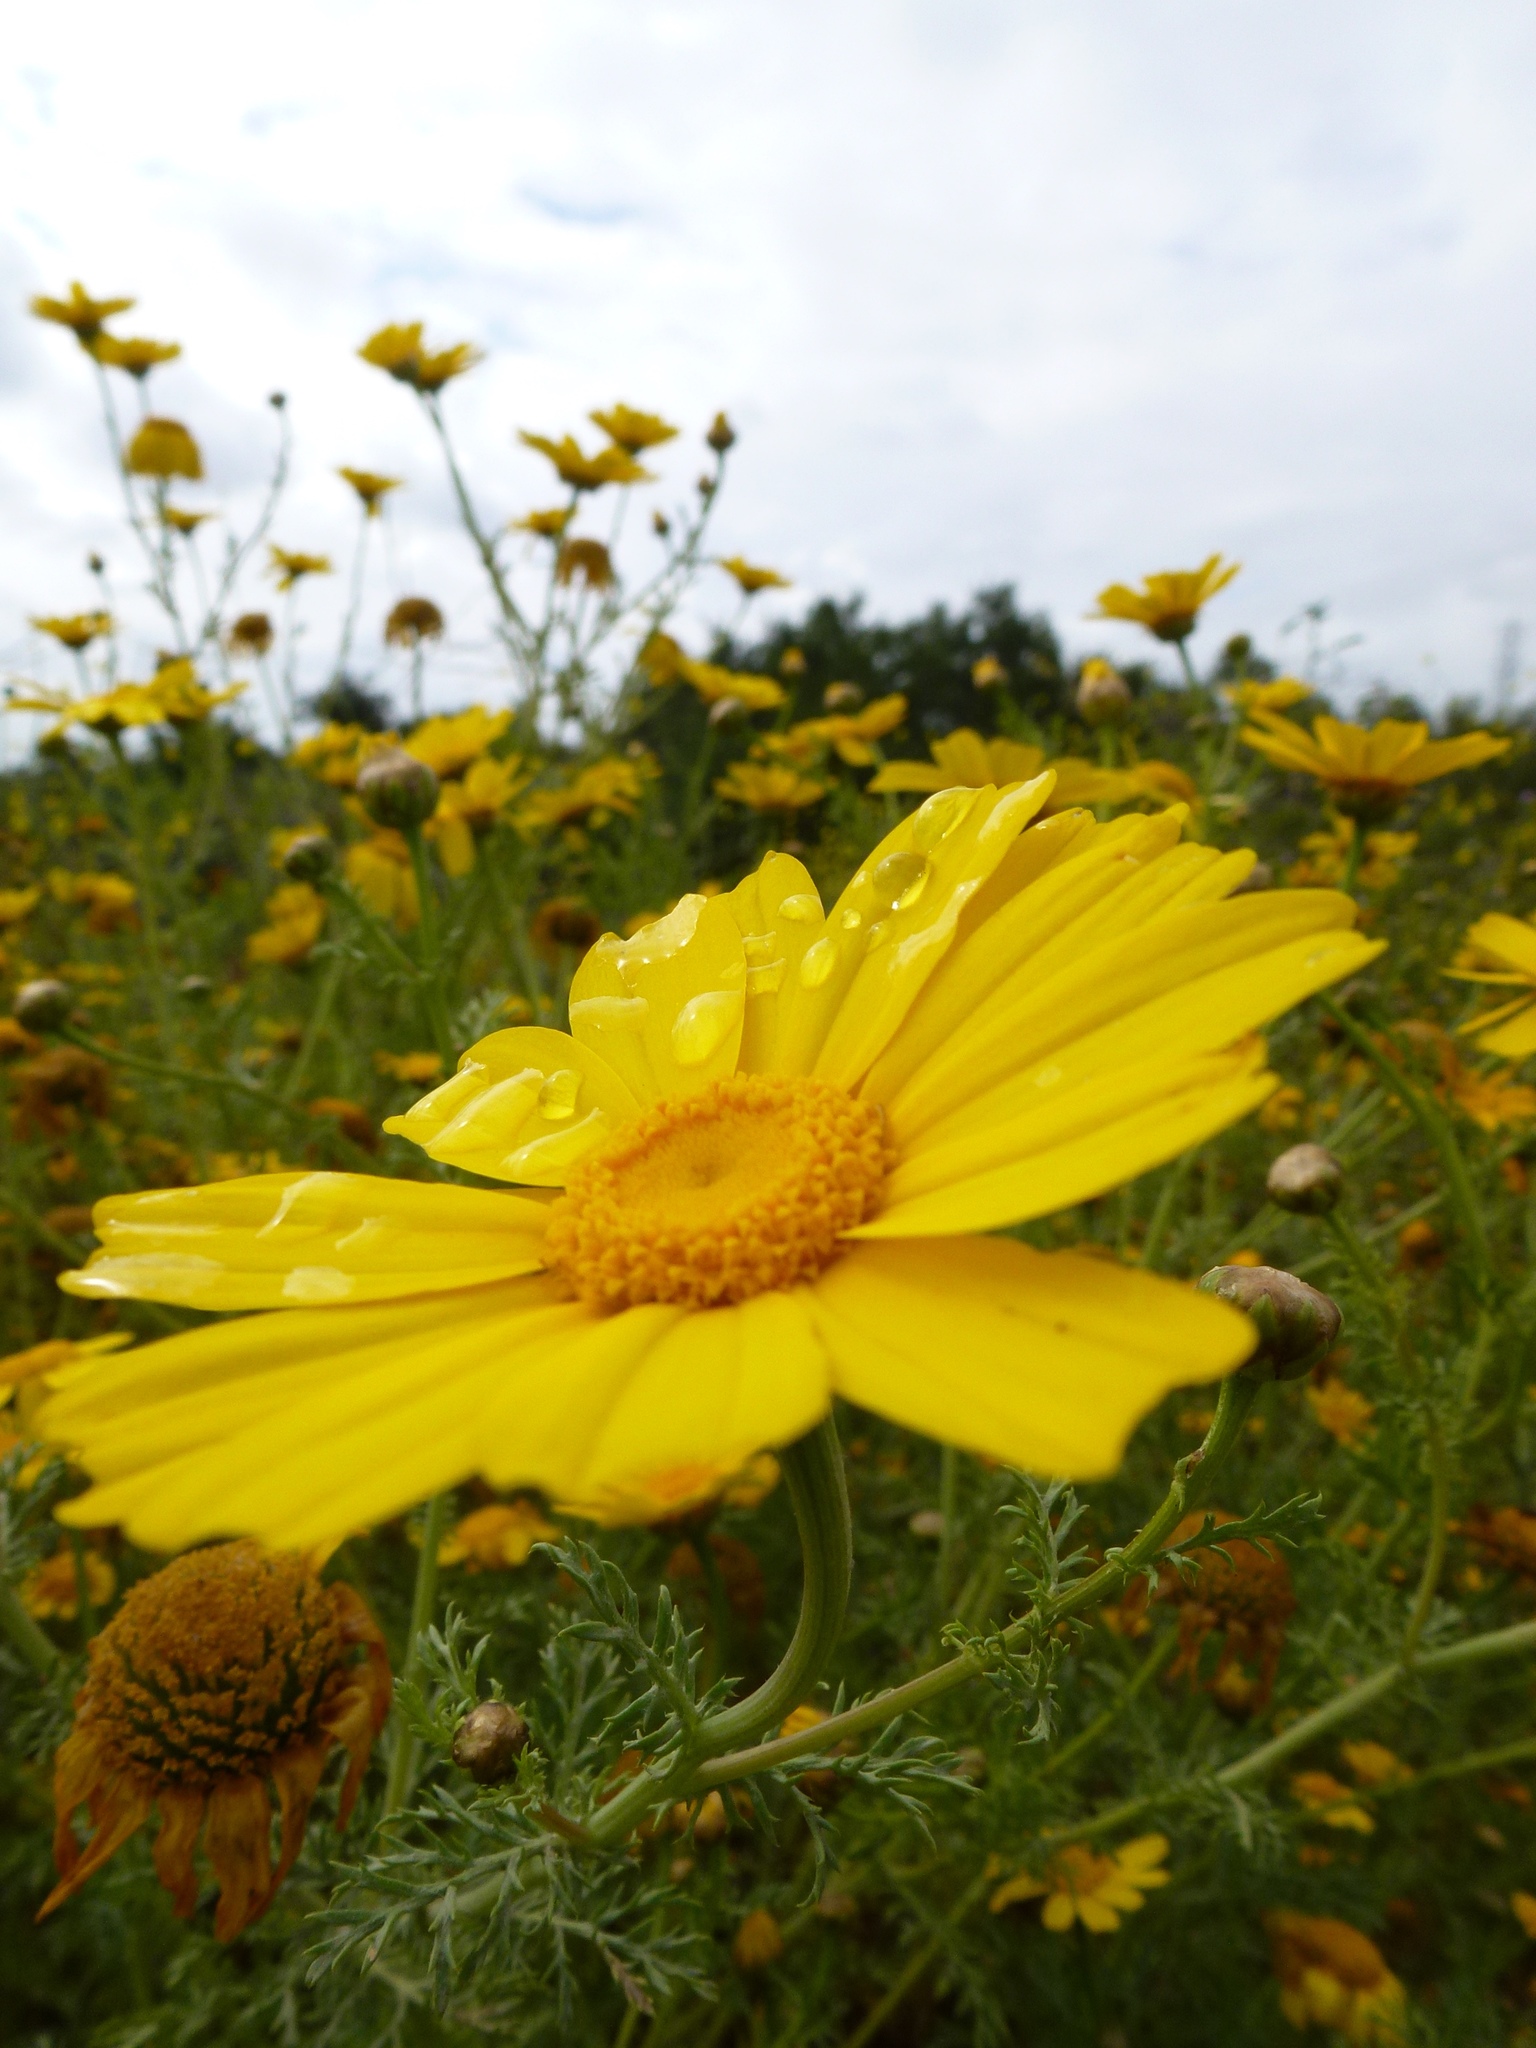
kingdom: Plantae
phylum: Tracheophyta
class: Magnoliopsida
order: Asterales
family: Asteraceae
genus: Glebionis
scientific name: Glebionis coronaria
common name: Crowndaisy
